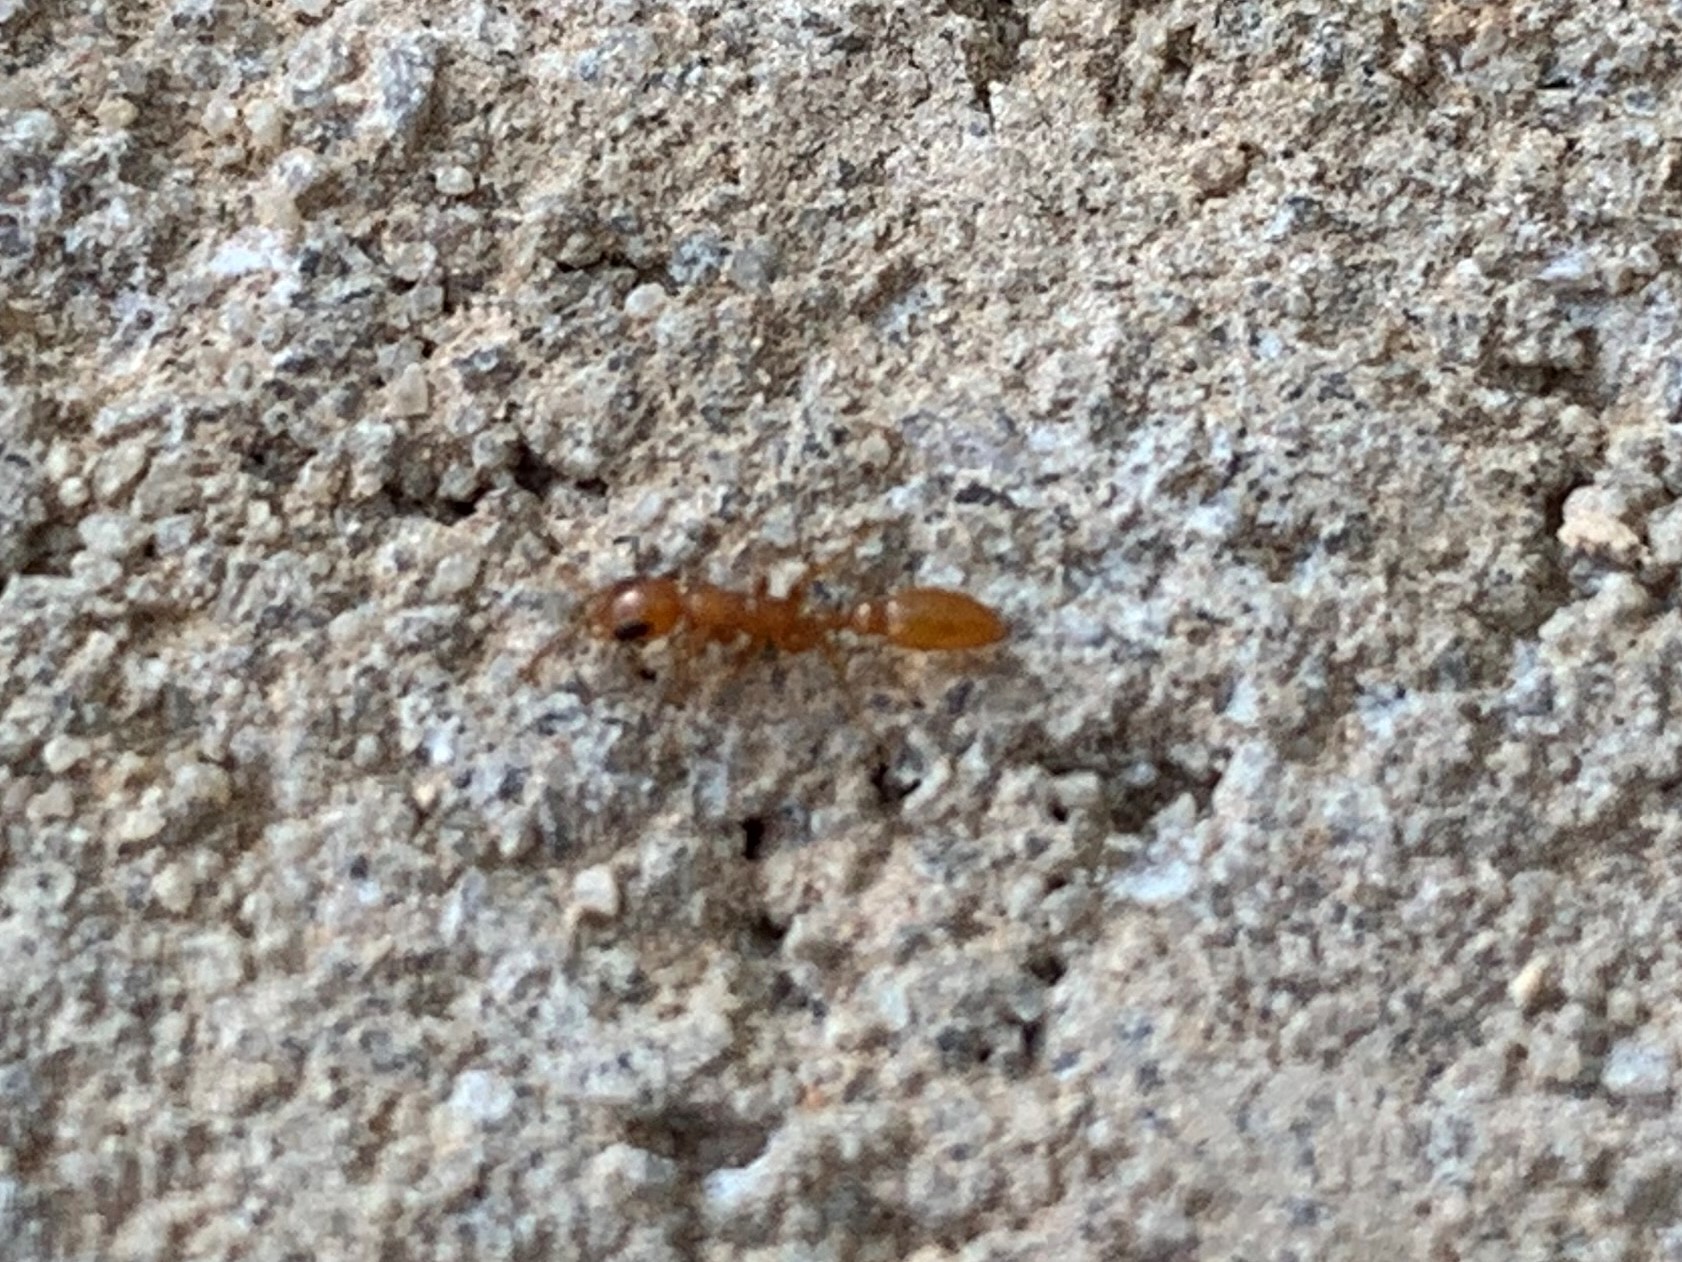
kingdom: Animalia
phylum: Arthropoda
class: Insecta
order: Hymenoptera
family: Formicidae
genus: Pseudomyrmex
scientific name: Pseudomyrmex pallidus
